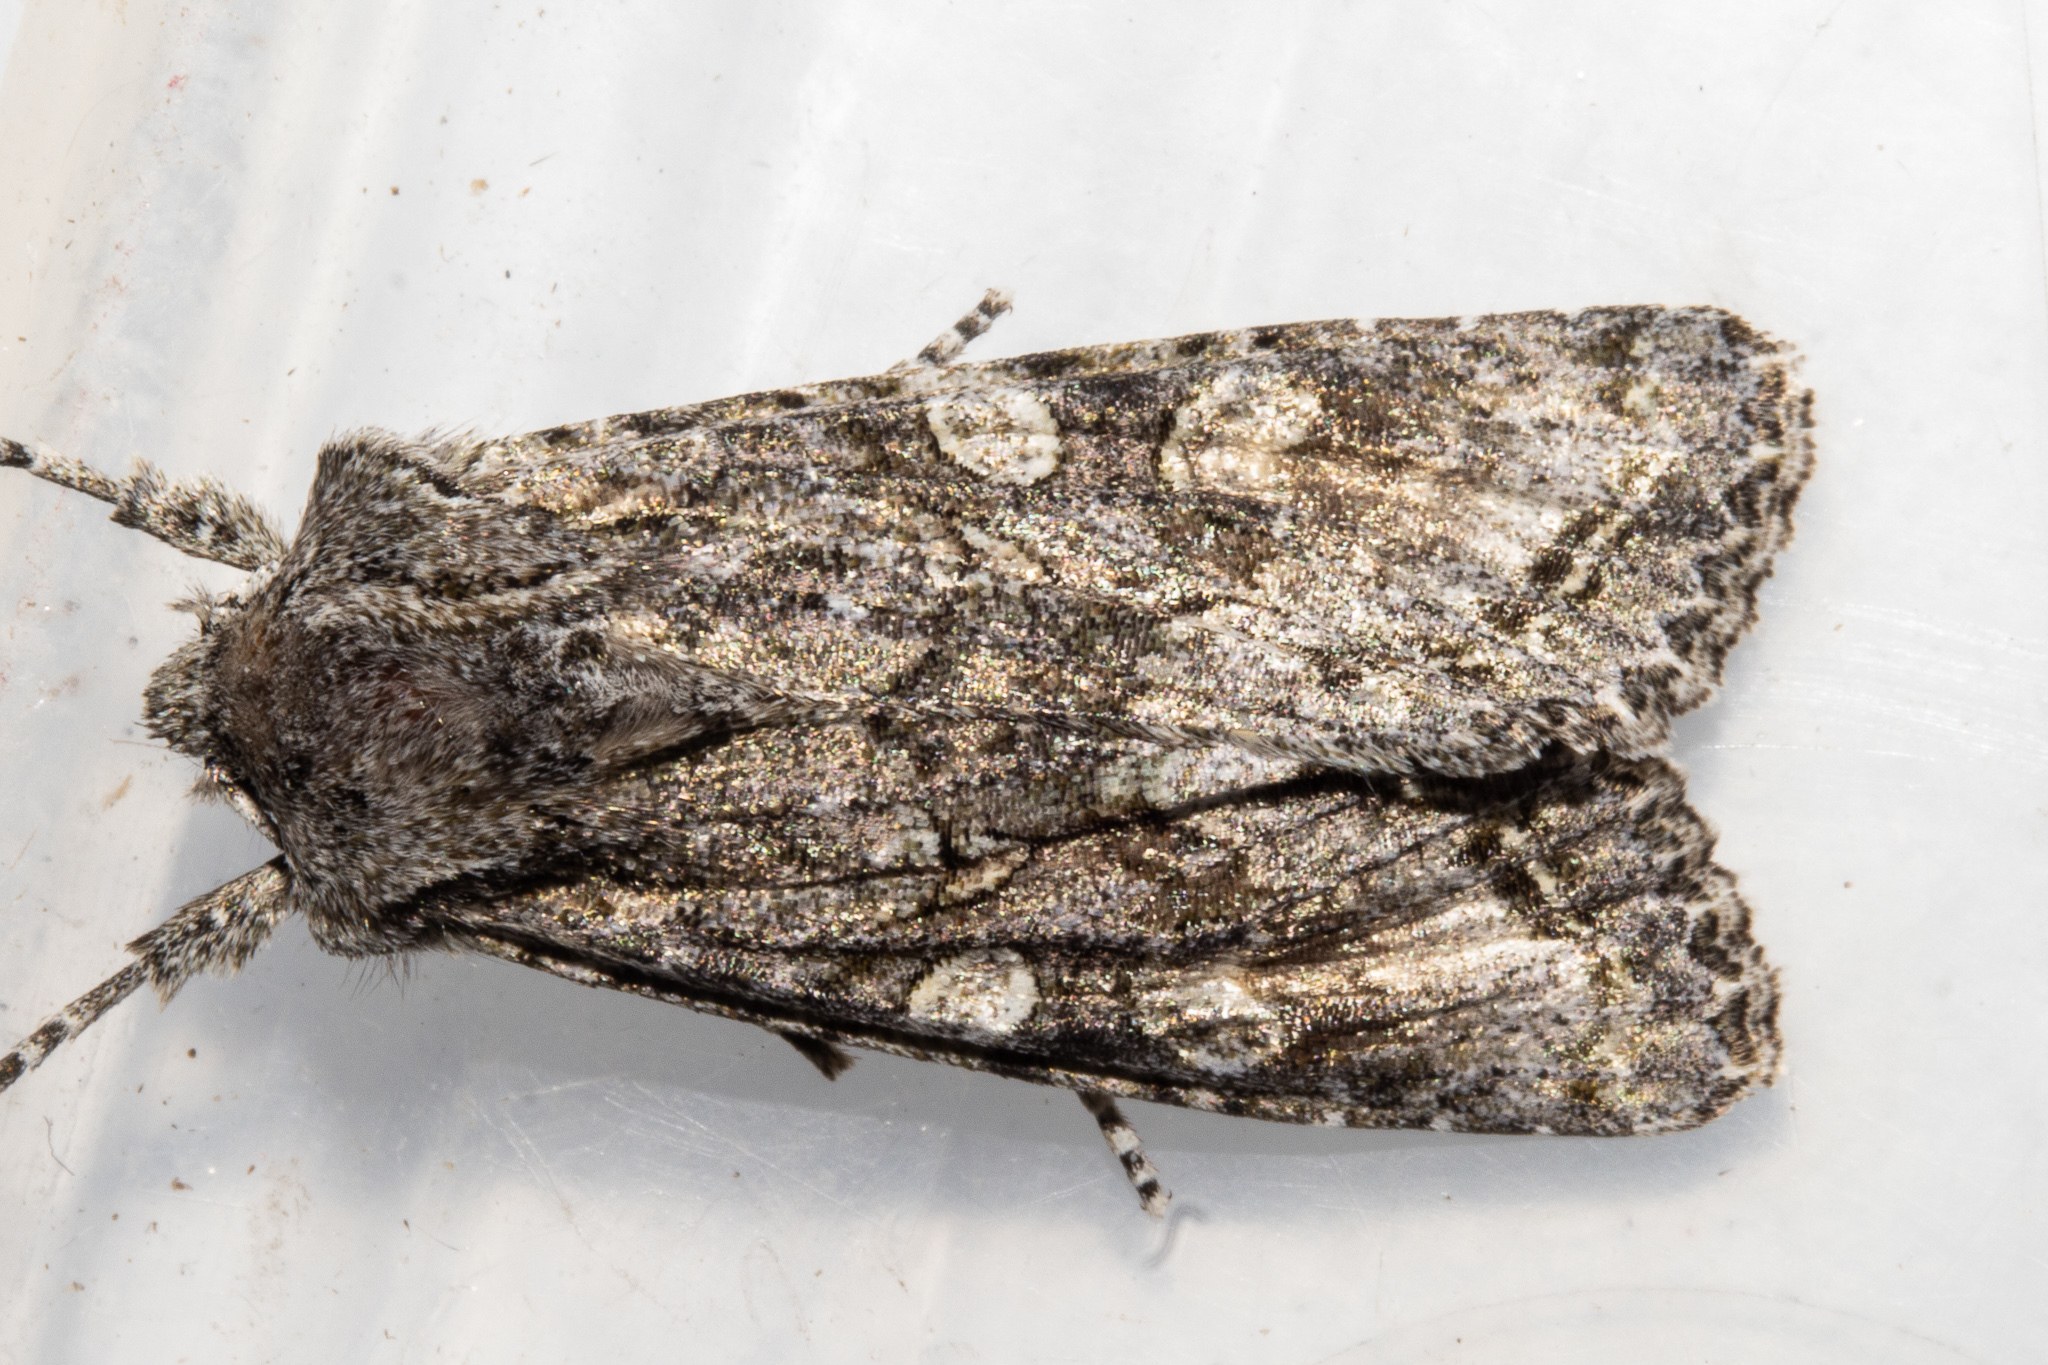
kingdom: Animalia
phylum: Arthropoda
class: Insecta
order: Lepidoptera
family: Noctuidae
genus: Ichneutica
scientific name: Ichneutica mutans
